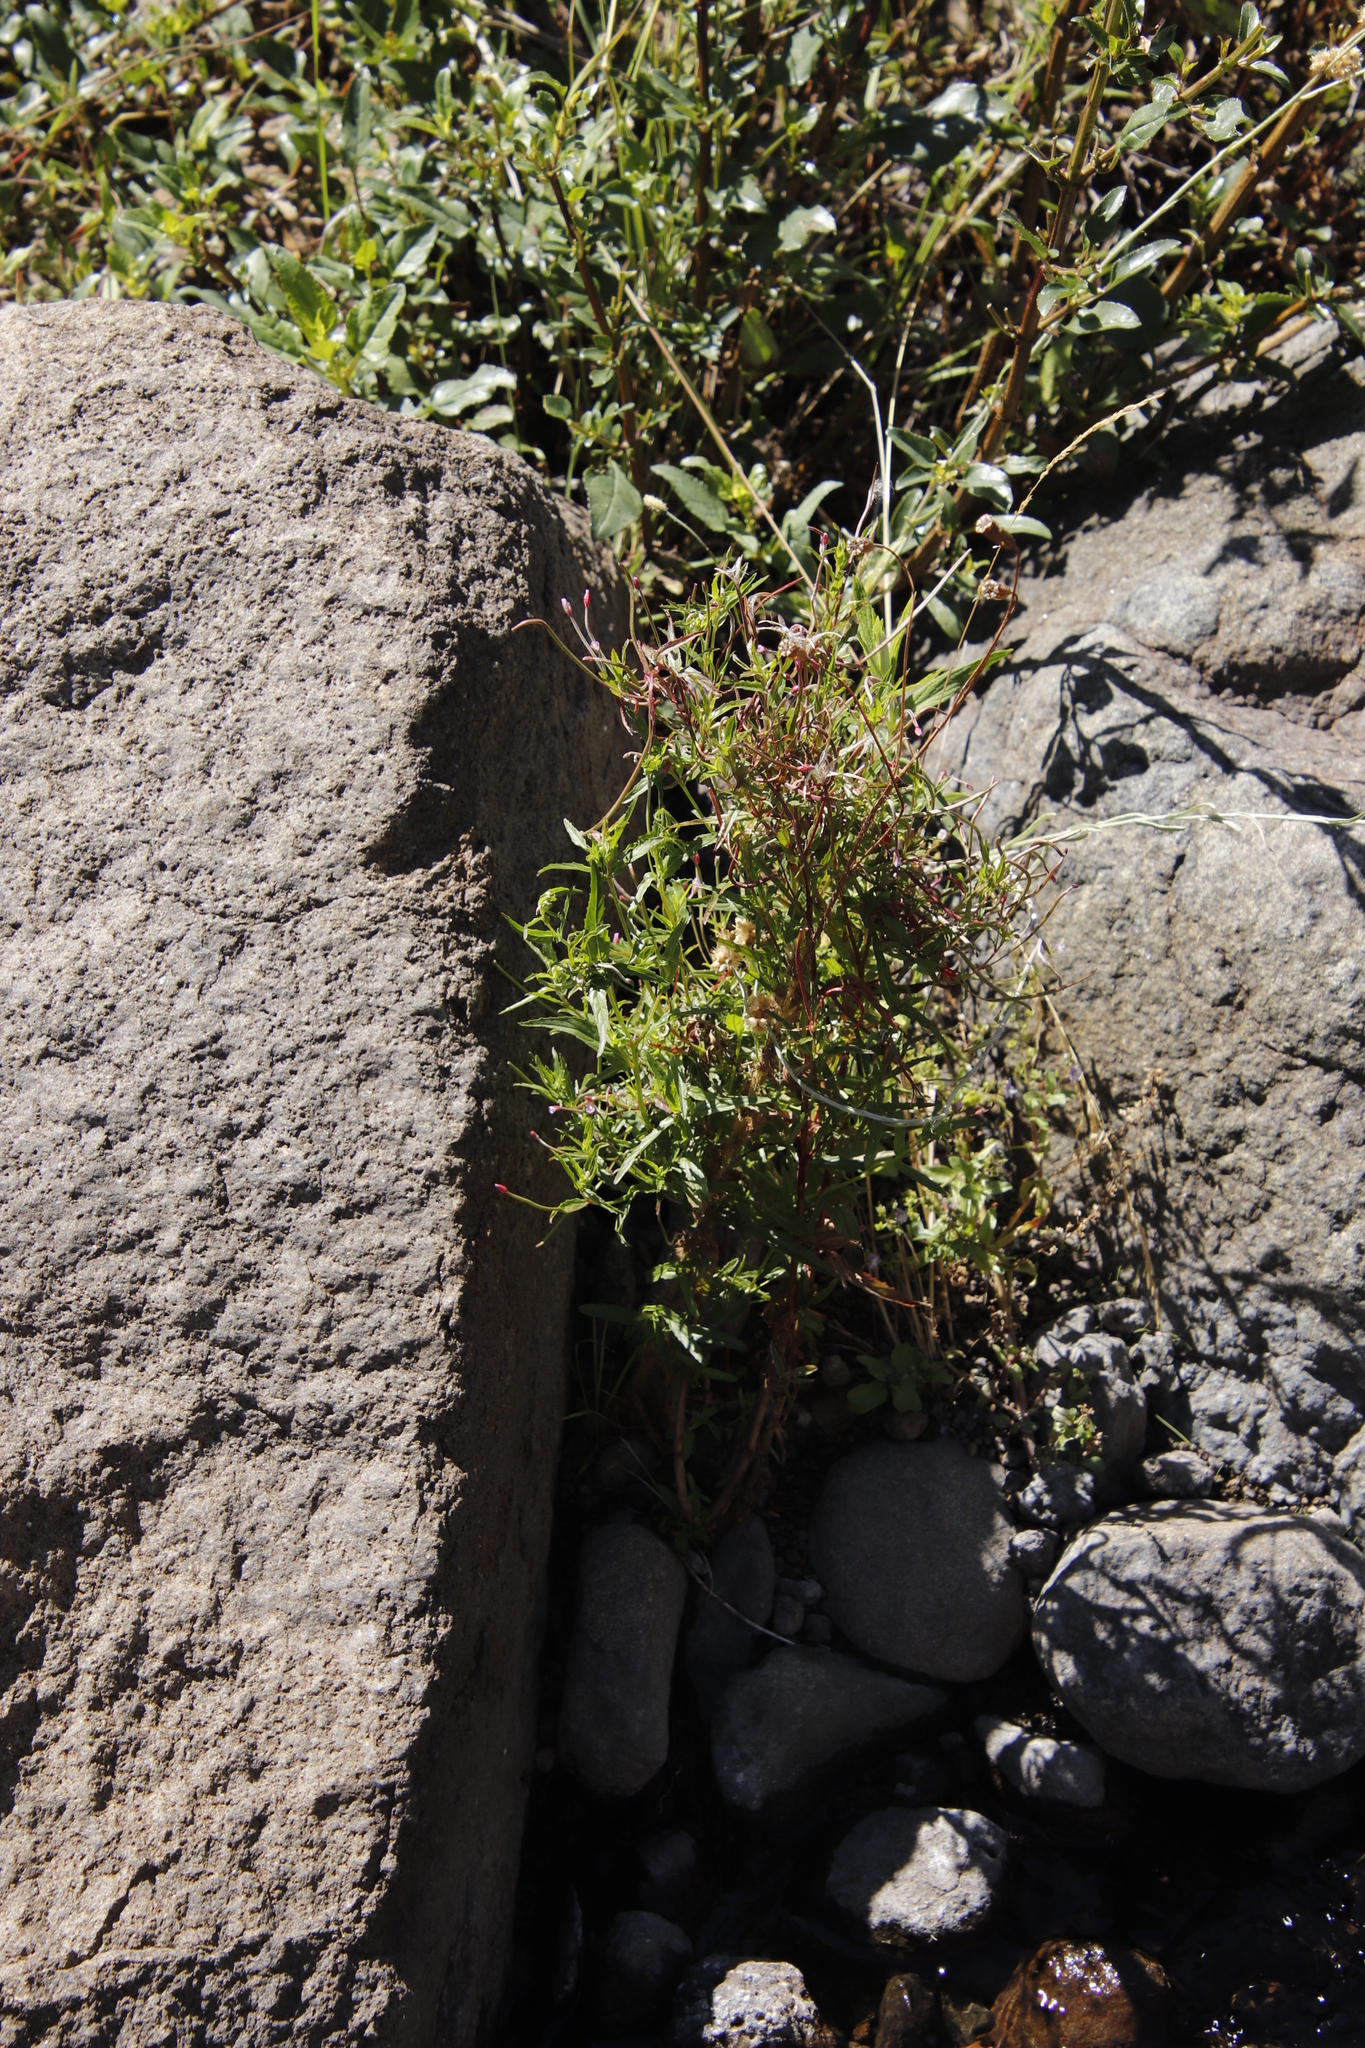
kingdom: Plantae
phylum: Tracheophyta
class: Magnoliopsida
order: Myrtales
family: Onagraceae
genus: Oenothera
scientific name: Oenothera rosea
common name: Rosy evening-primrose
